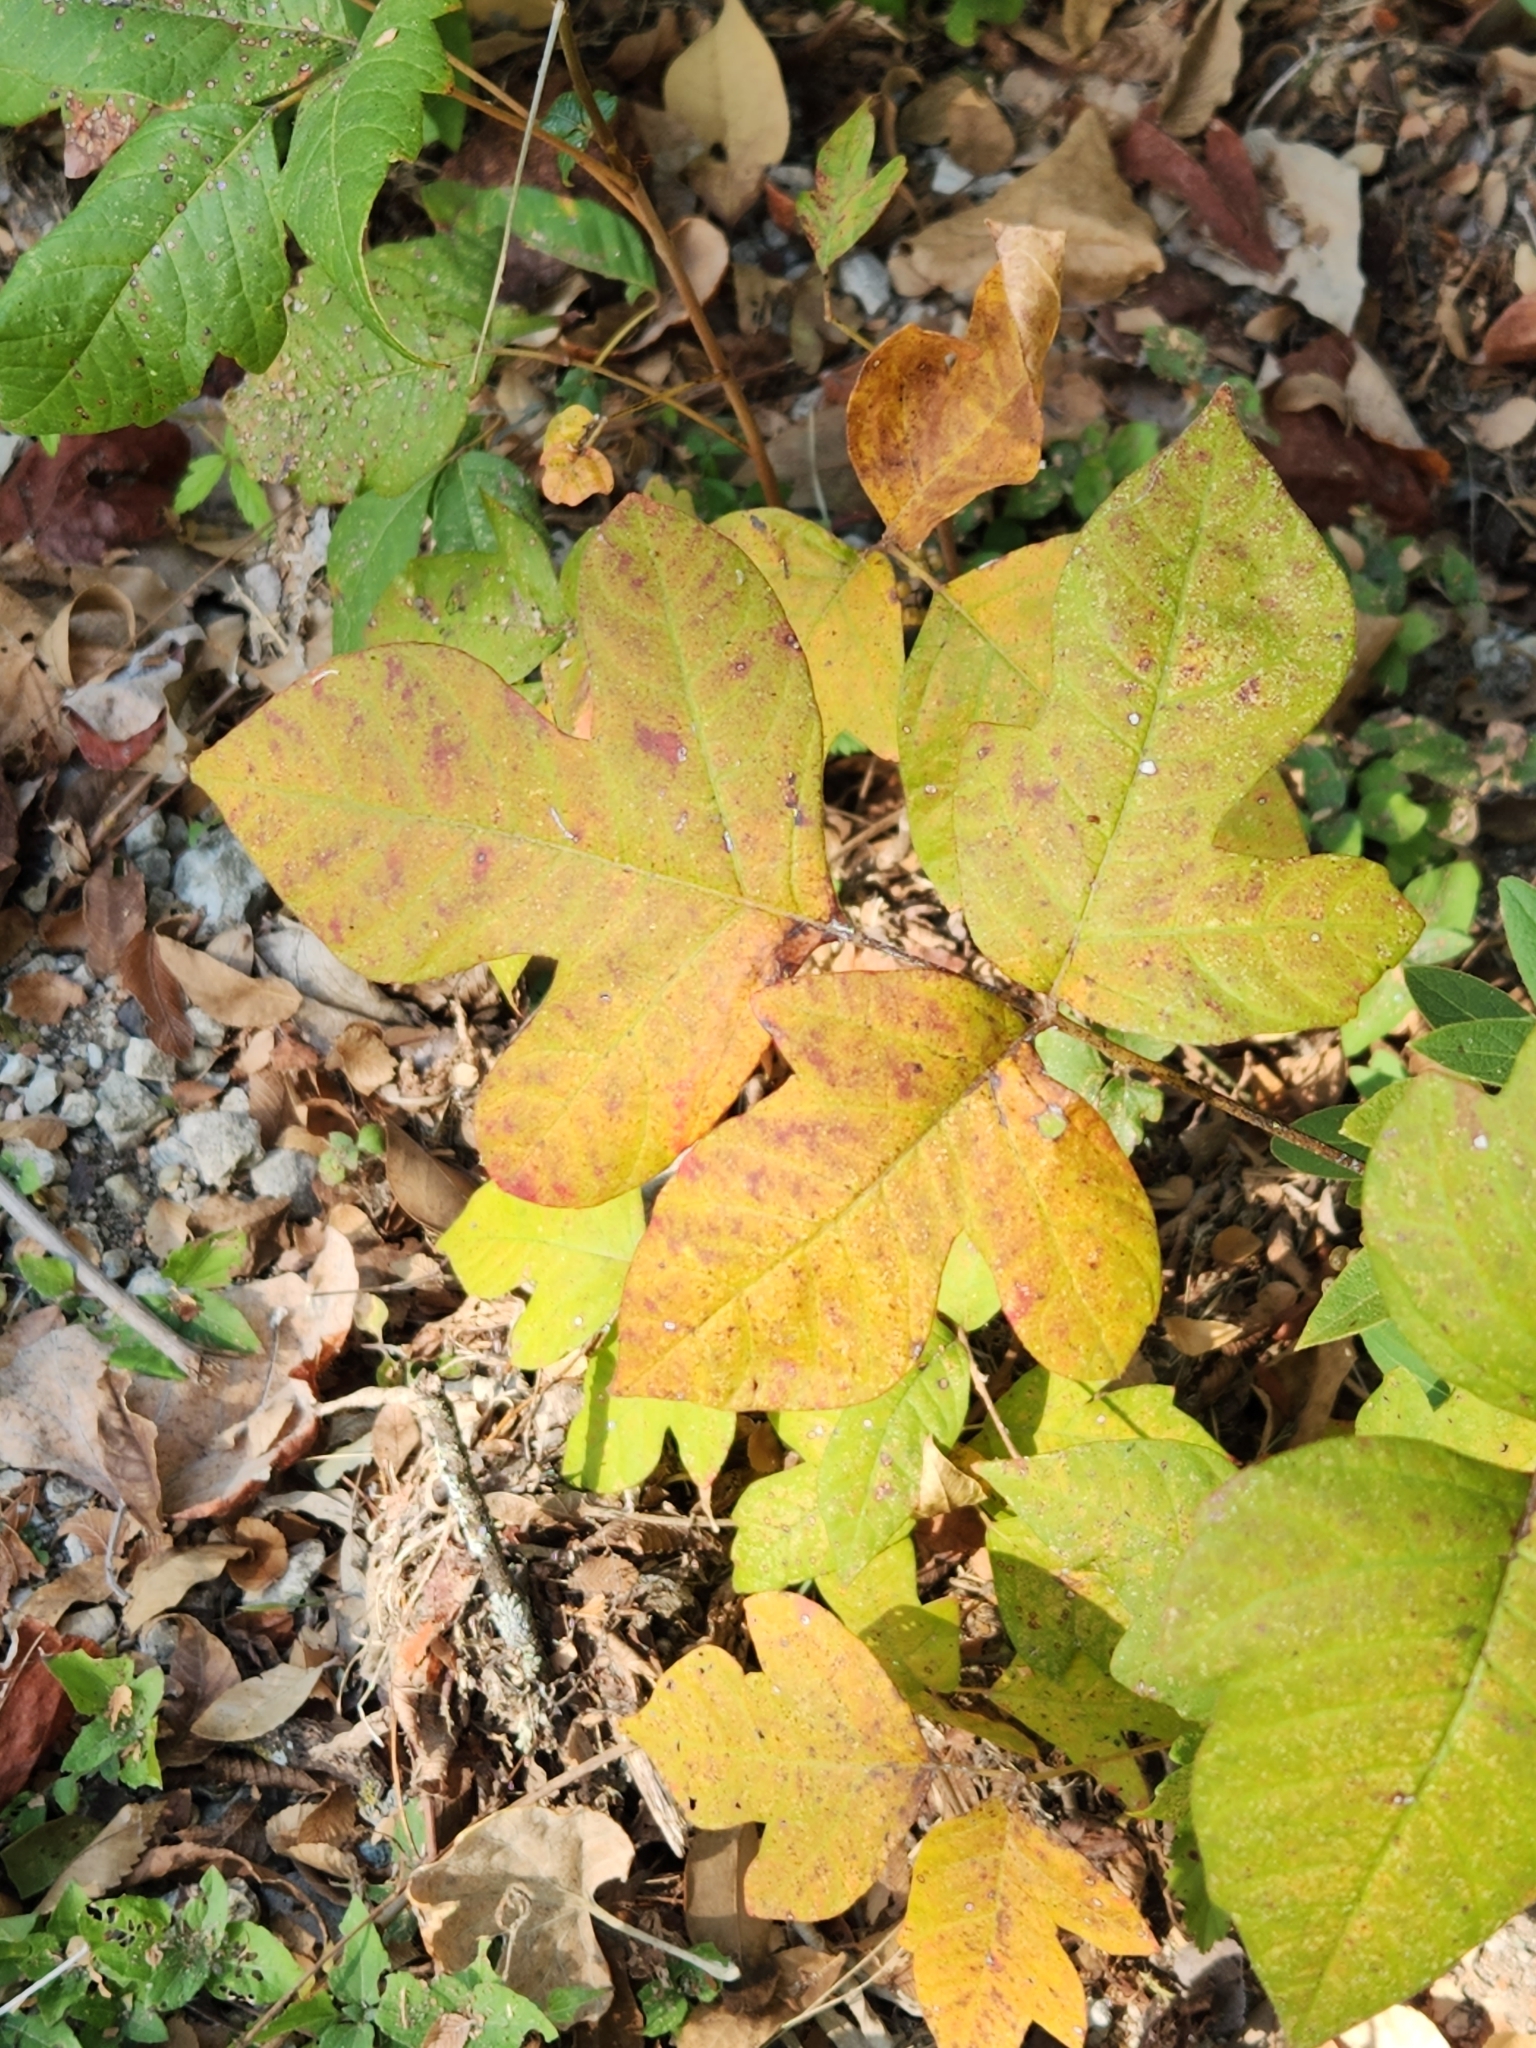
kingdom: Plantae
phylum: Tracheophyta
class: Magnoliopsida
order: Sapindales
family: Anacardiaceae
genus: Toxicodendron
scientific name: Toxicodendron radicans
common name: Poison ivy
